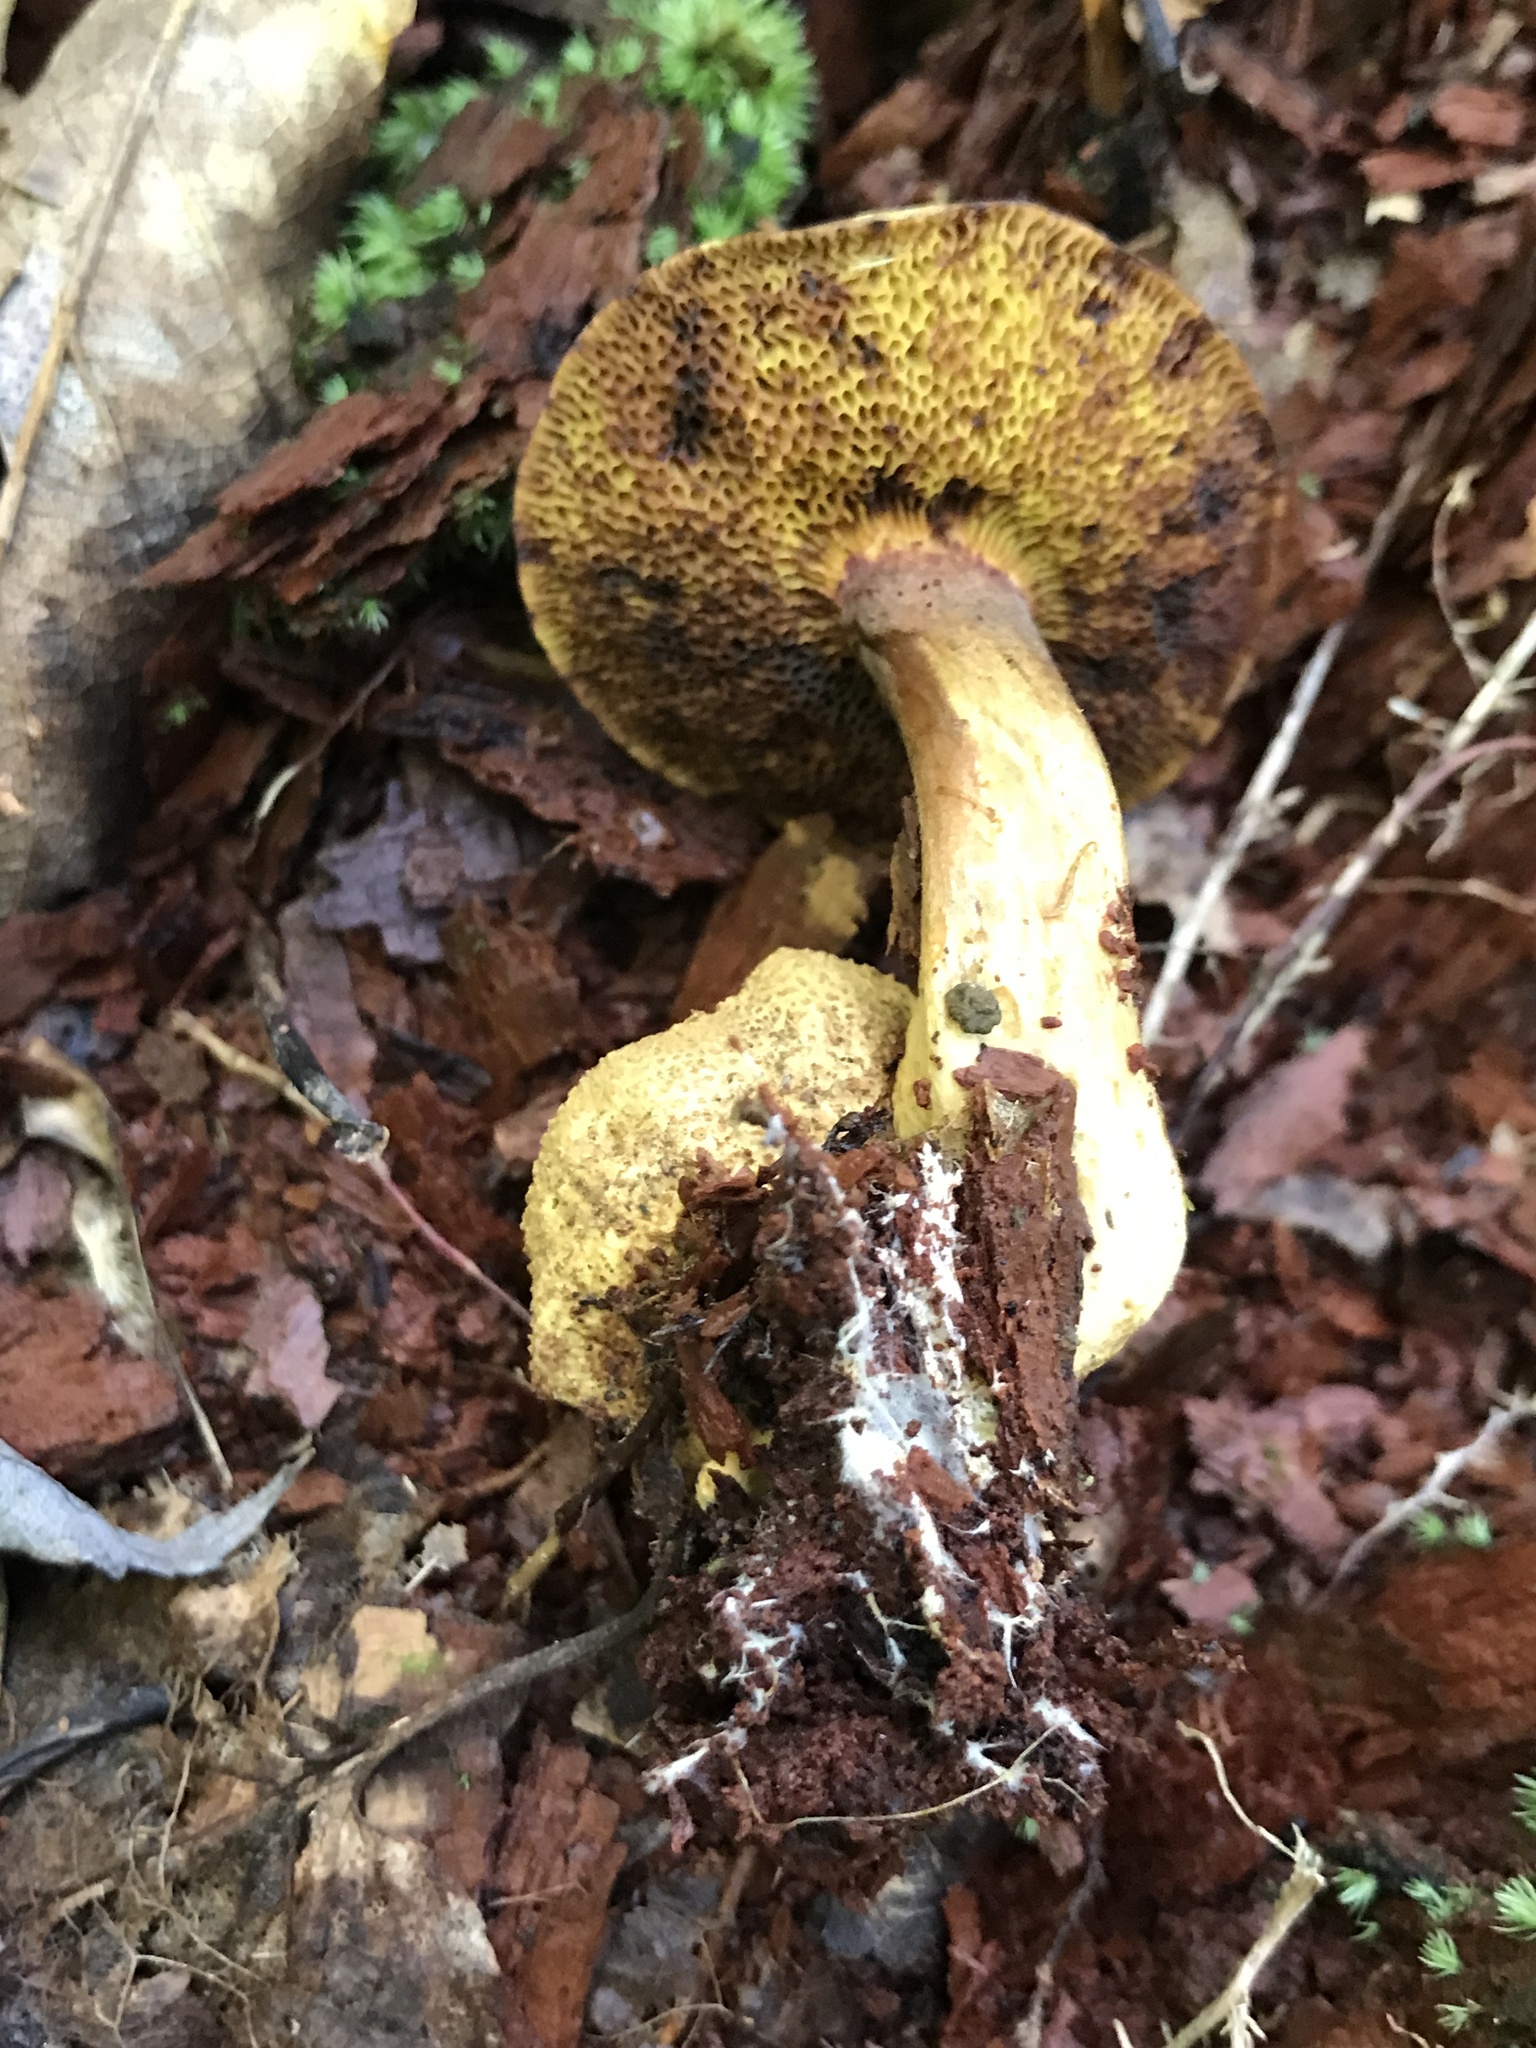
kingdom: Fungi
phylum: Basidiomycota
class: Agaricomycetes
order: Boletales
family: Boletaceae
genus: Pseudoboletus
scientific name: Pseudoboletus parasiticus
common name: Parasitic bolete
